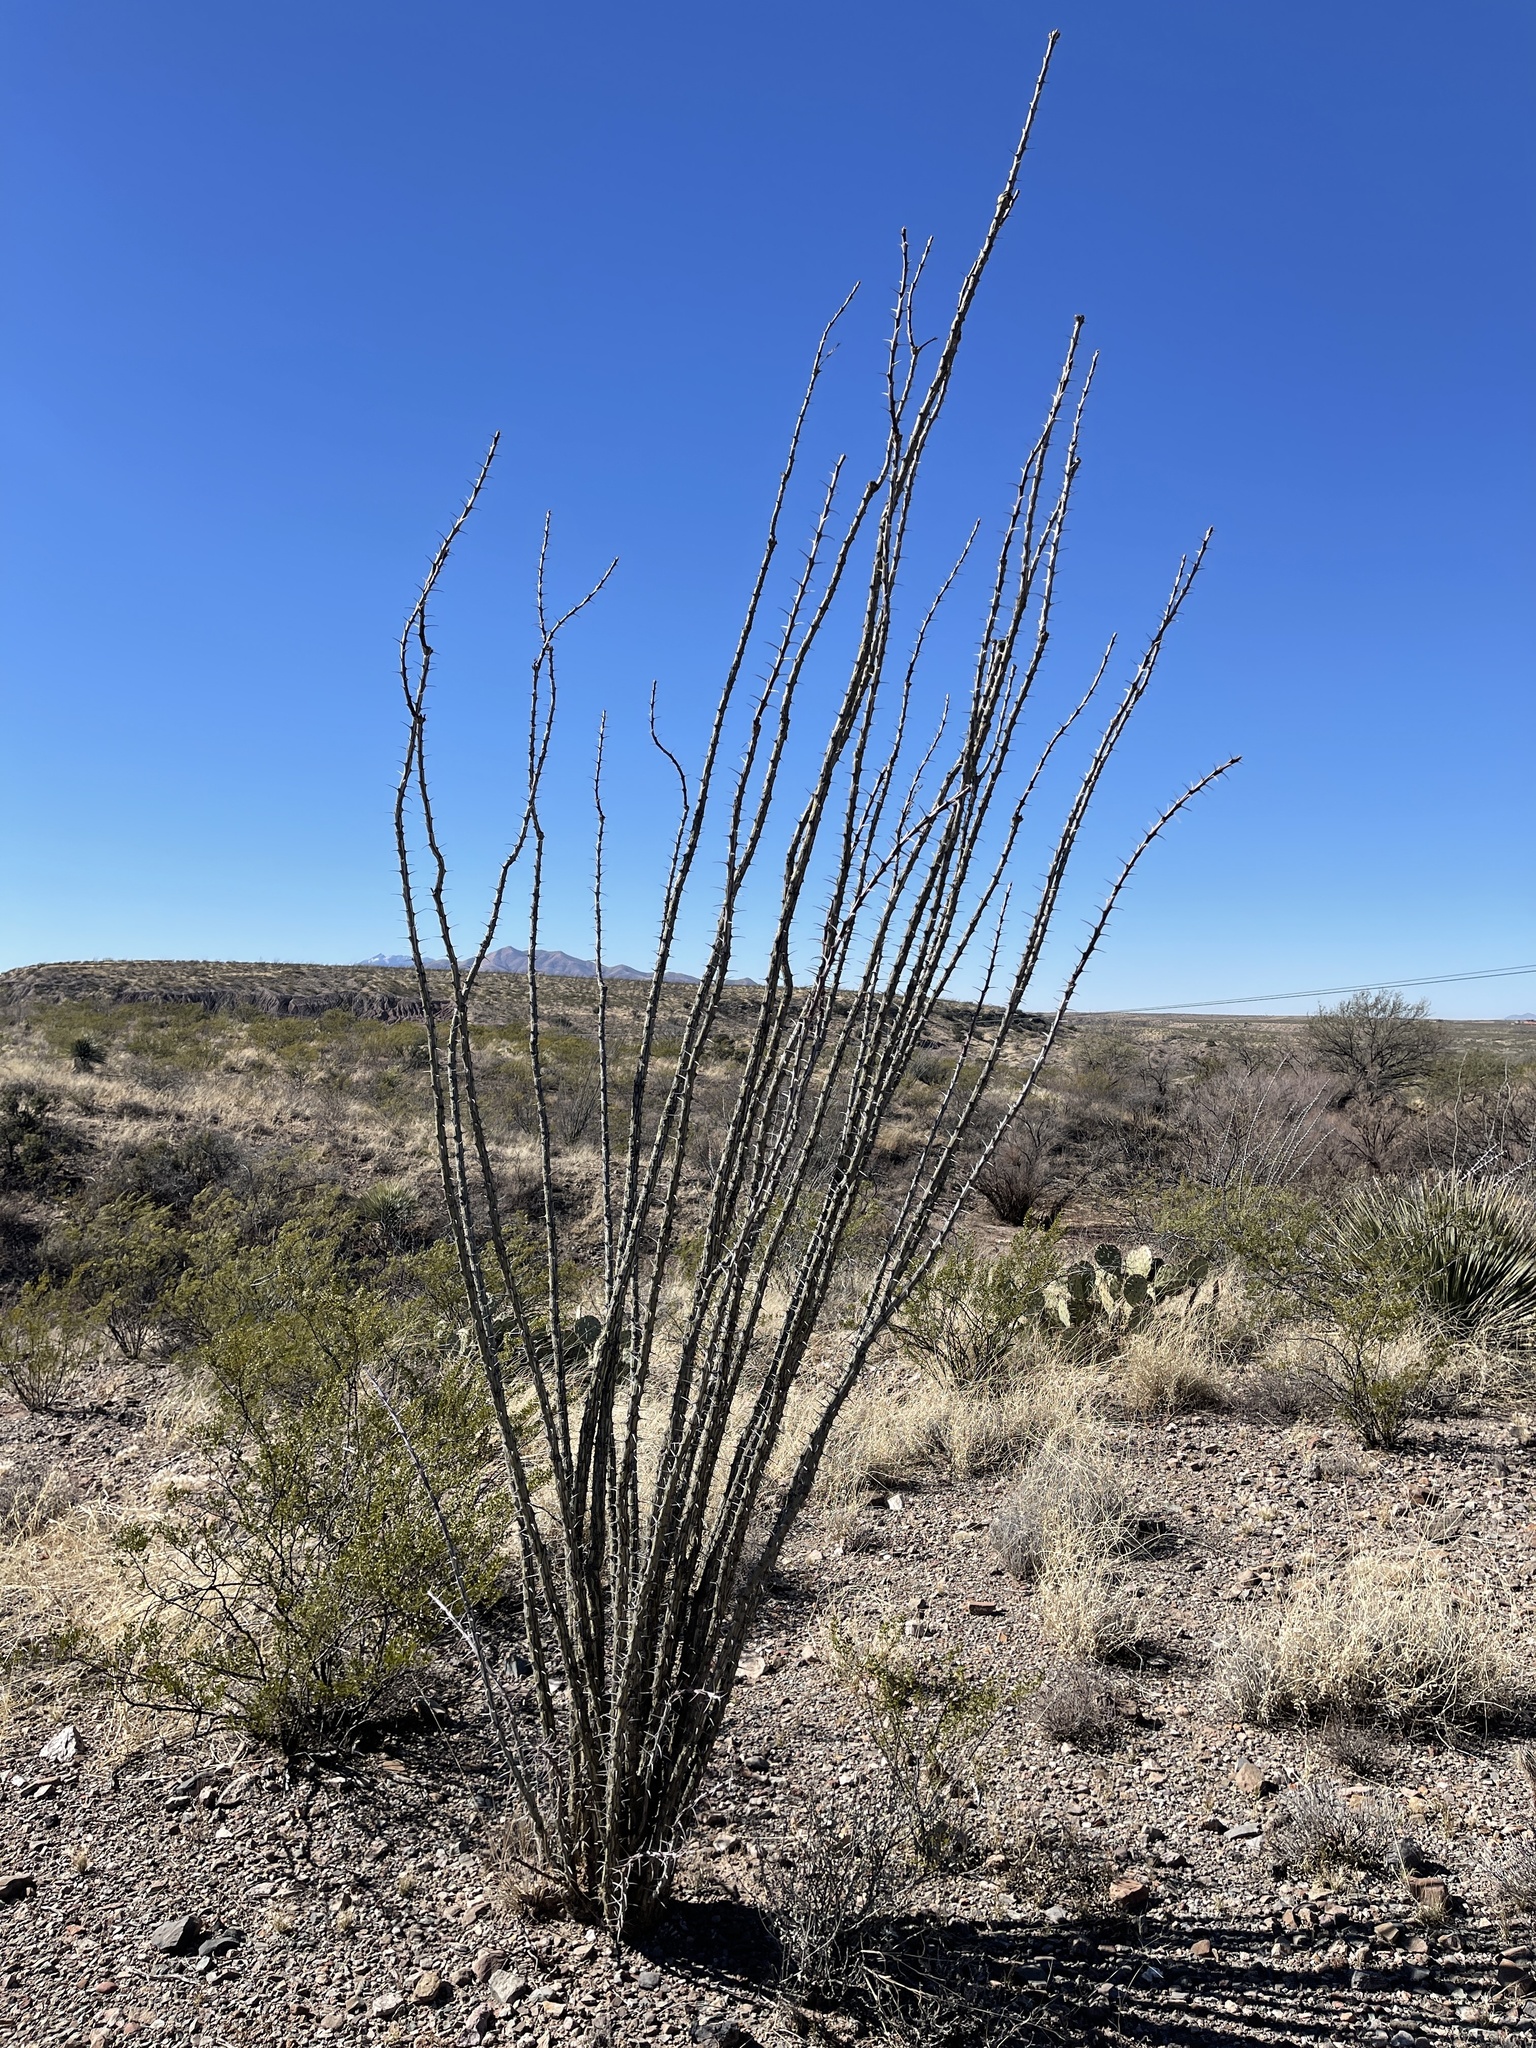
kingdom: Plantae
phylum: Tracheophyta
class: Magnoliopsida
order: Ericales
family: Fouquieriaceae
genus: Fouquieria
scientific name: Fouquieria splendens
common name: Vine-cactus
